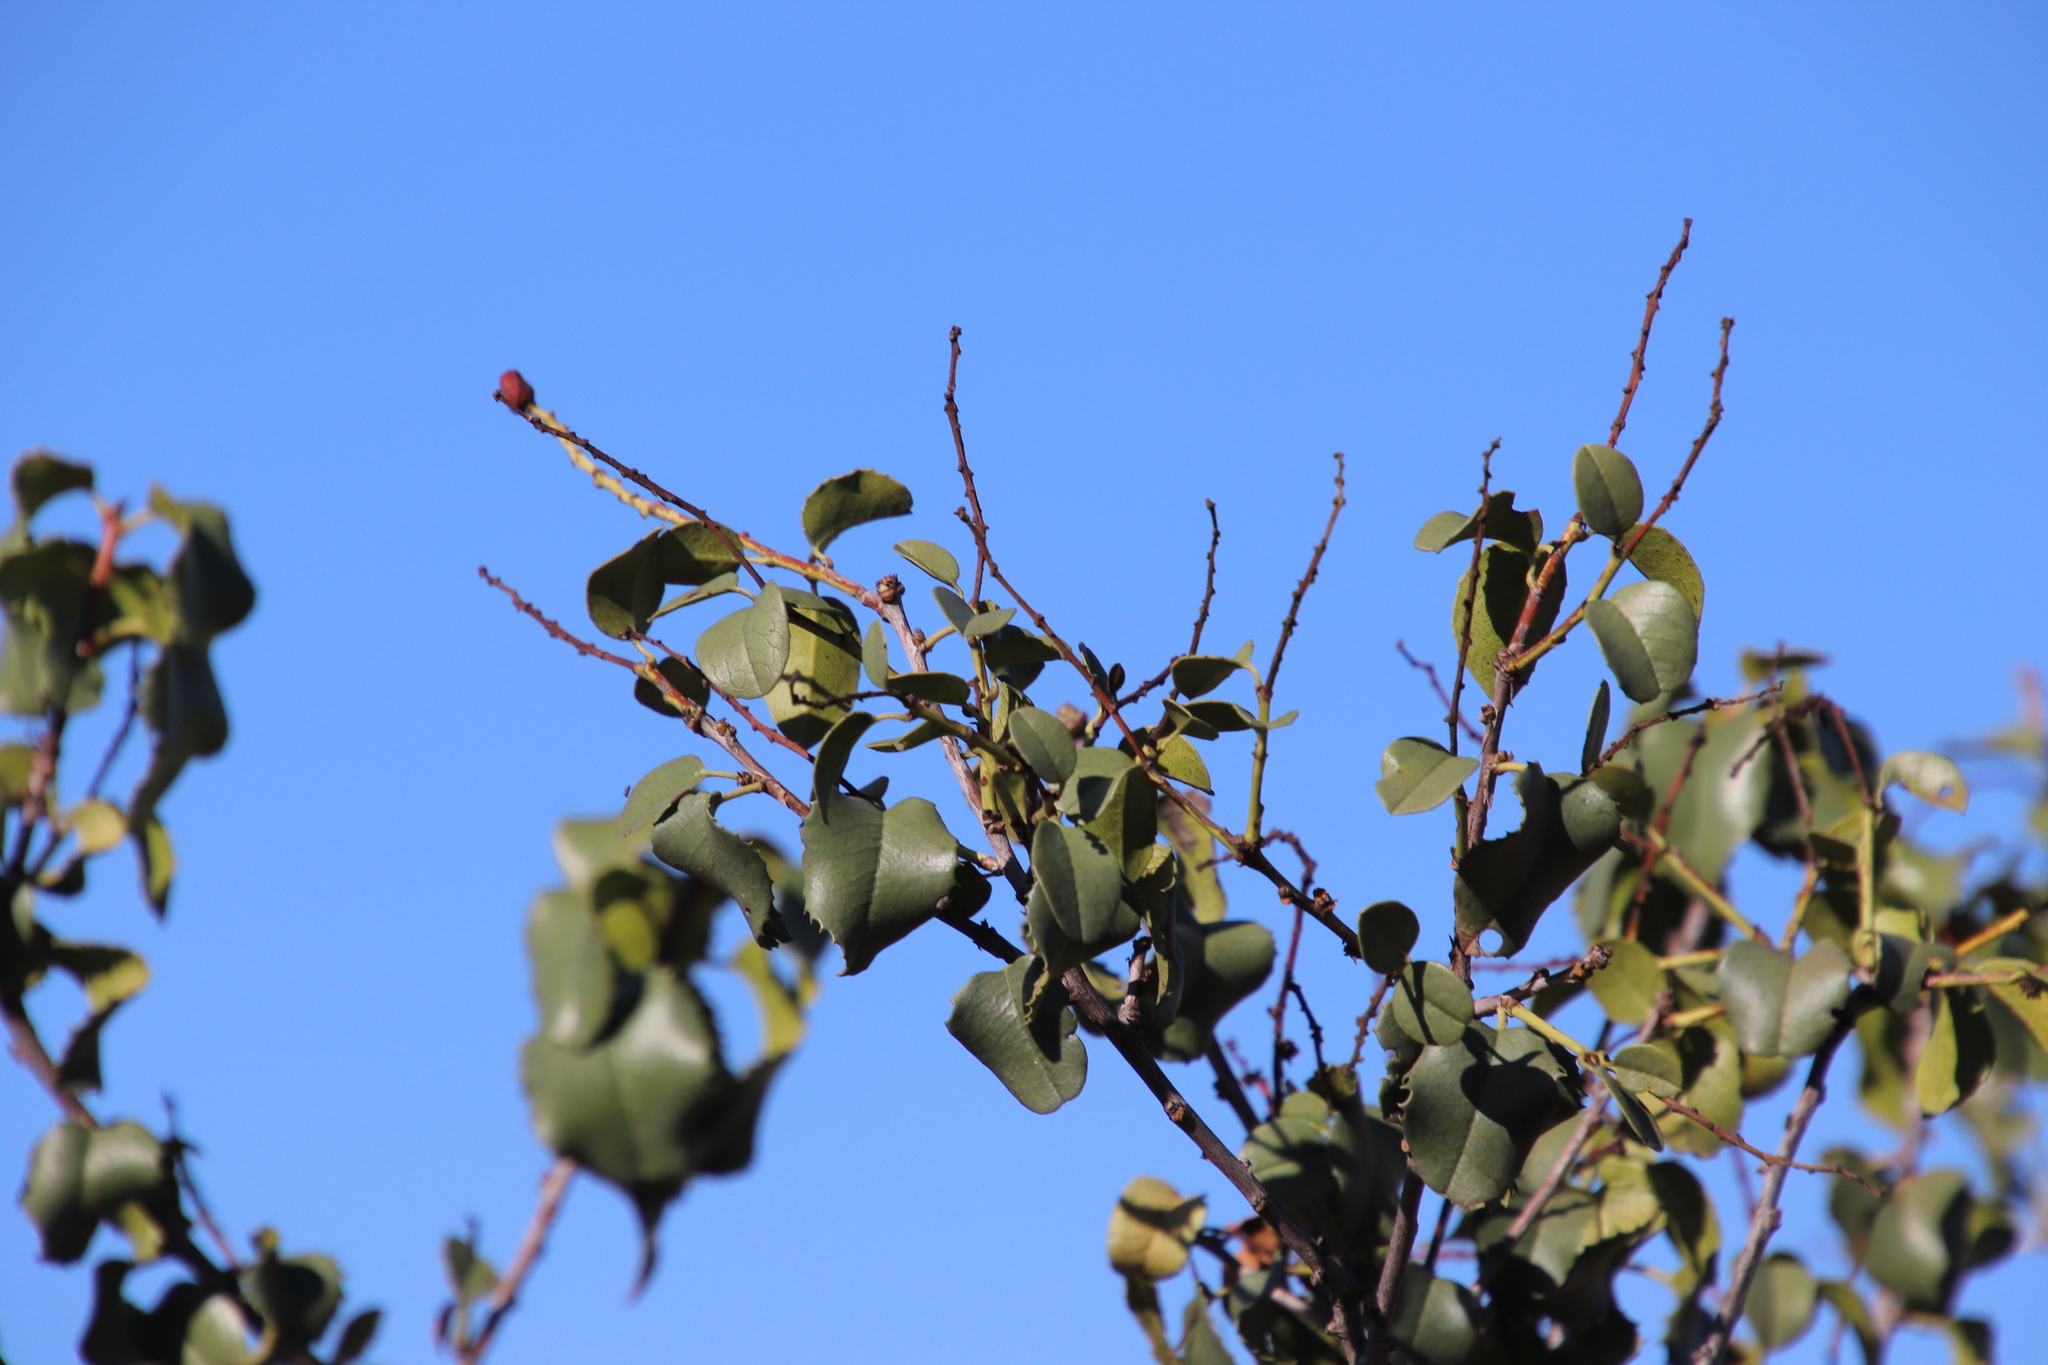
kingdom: Plantae
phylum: Tracheophyta
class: Magnoliopsida
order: Rosales
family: Rosaceae
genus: Prunus
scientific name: Prunus ilicifolia
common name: Hollyleaf cherry
